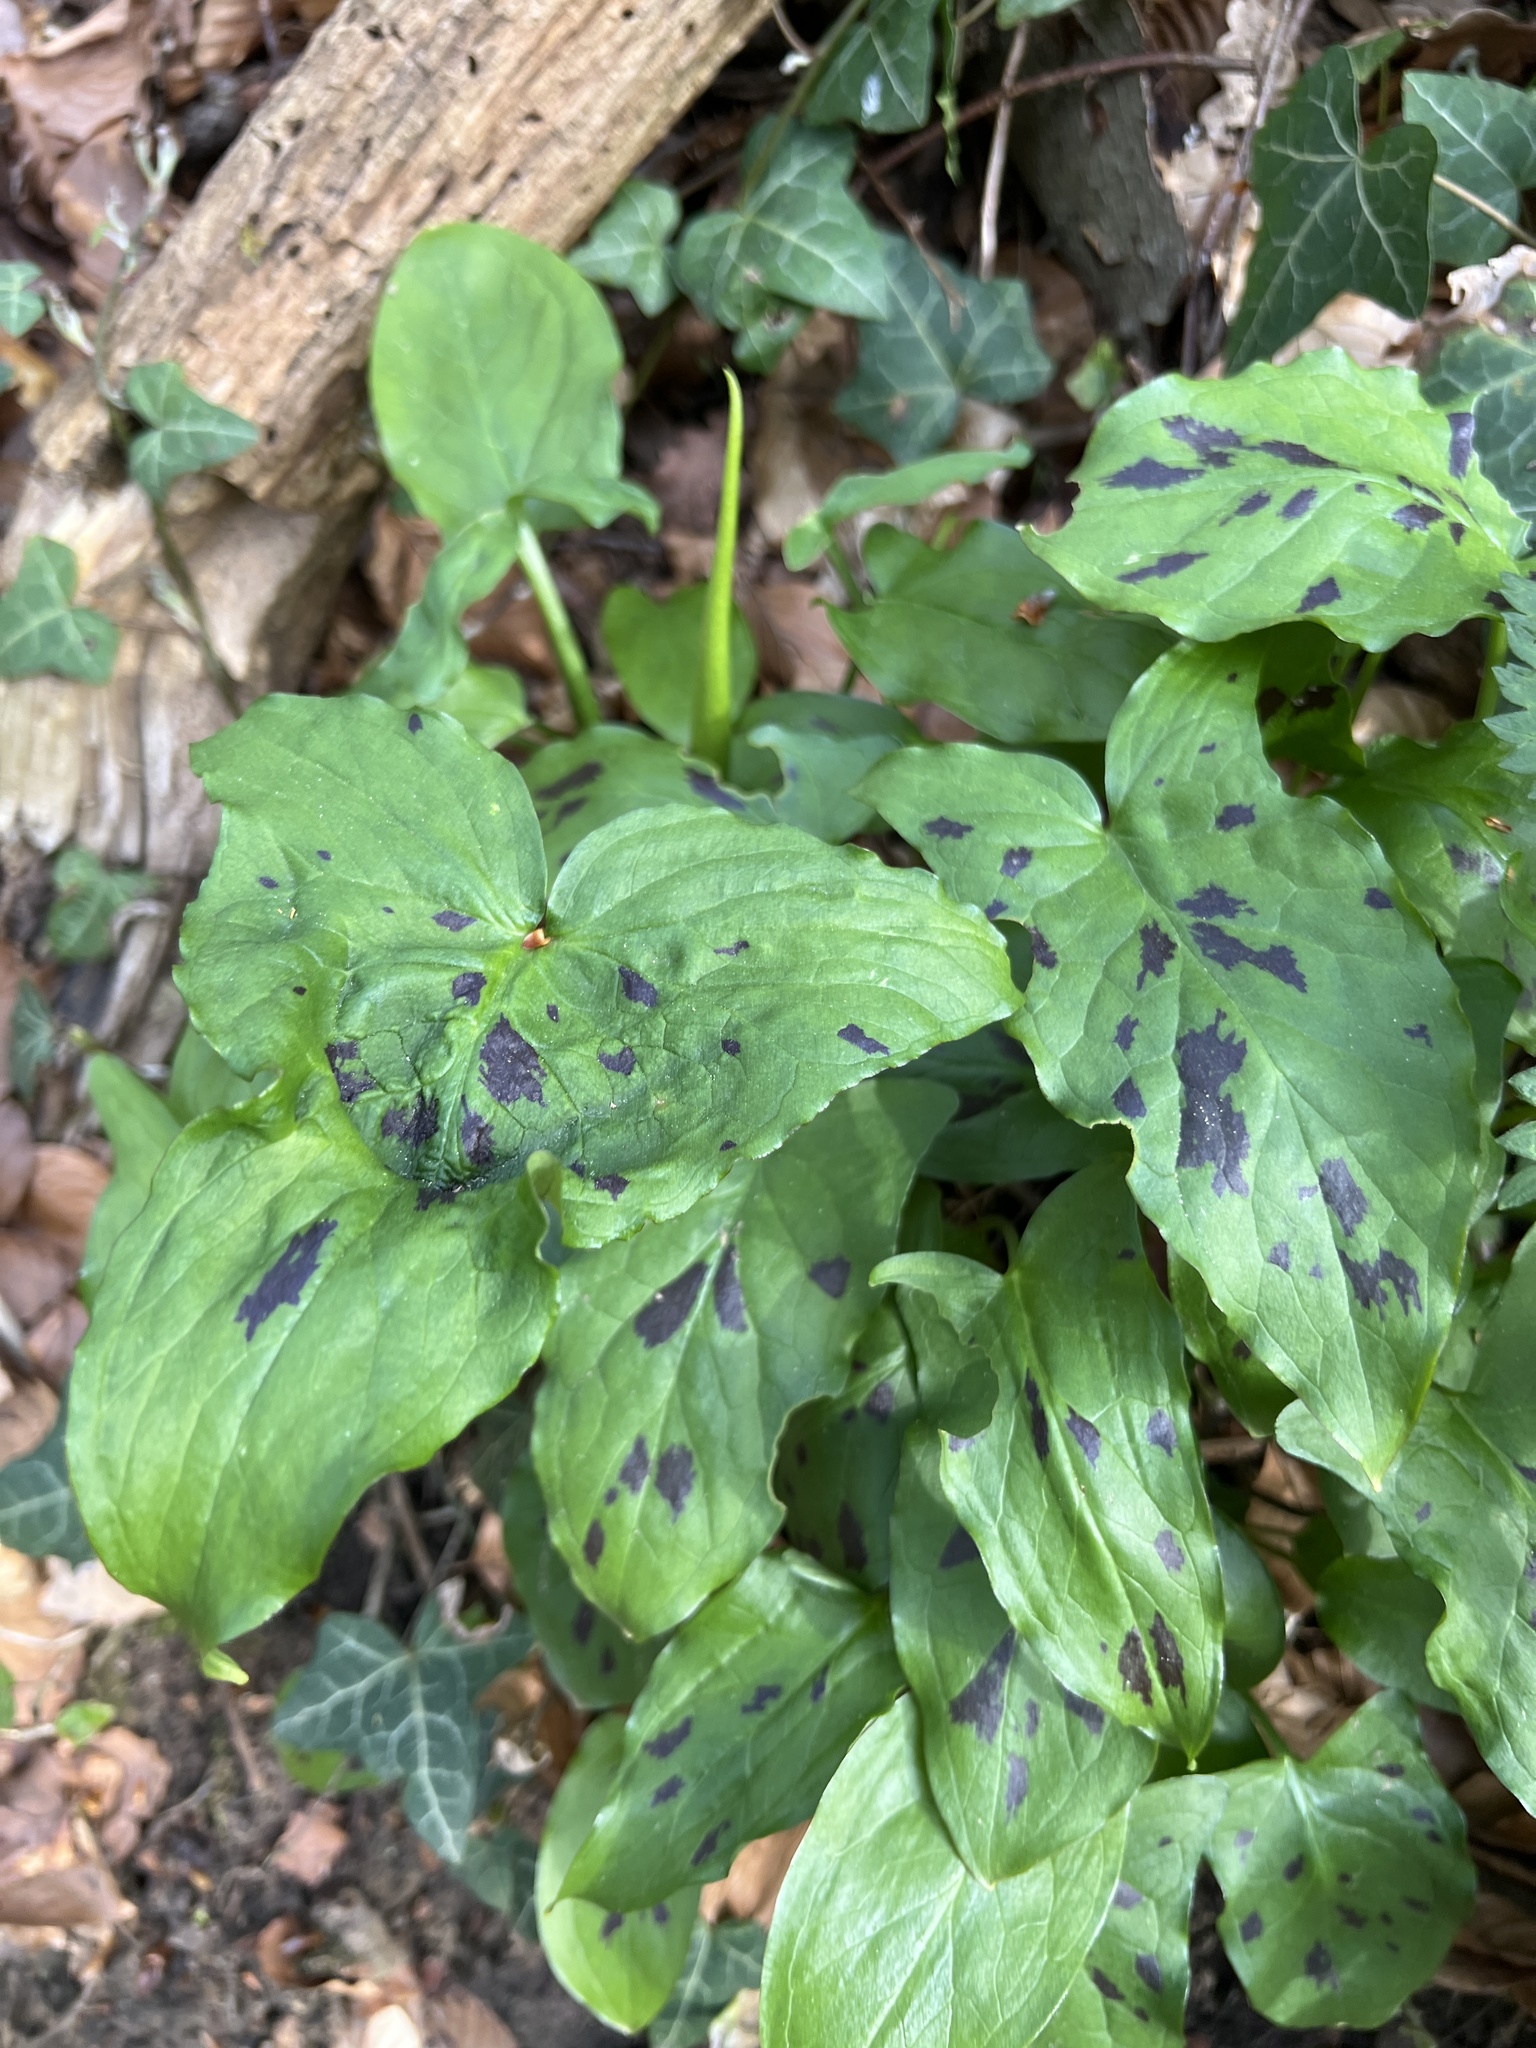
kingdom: Plantae
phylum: Tracheophyta
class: Liliopsida
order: Alismatales
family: Araceae
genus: Arum
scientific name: Arum maculatum
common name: Lords-and-ladies
